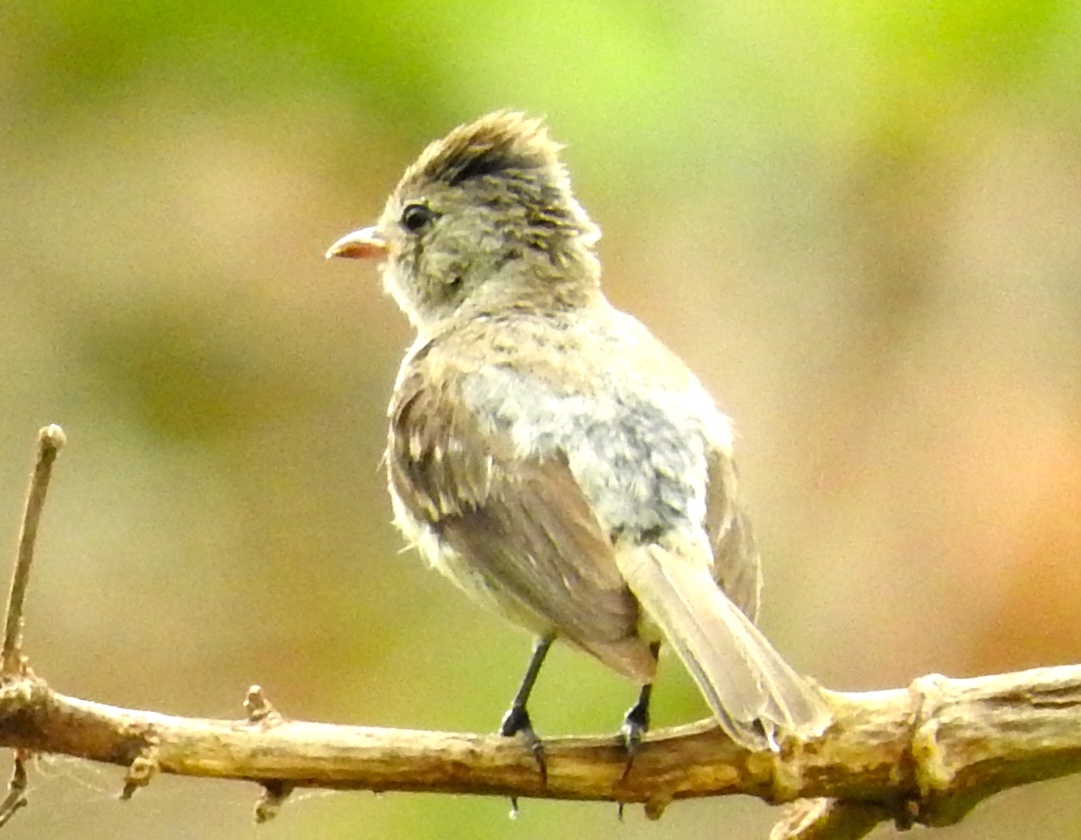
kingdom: Animalia
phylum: Chordata
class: Aves
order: Passeriformes
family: Tyrannidae
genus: Camptostoma
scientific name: Camptostoma imberbe
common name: Northern beardless-tyrannulet
